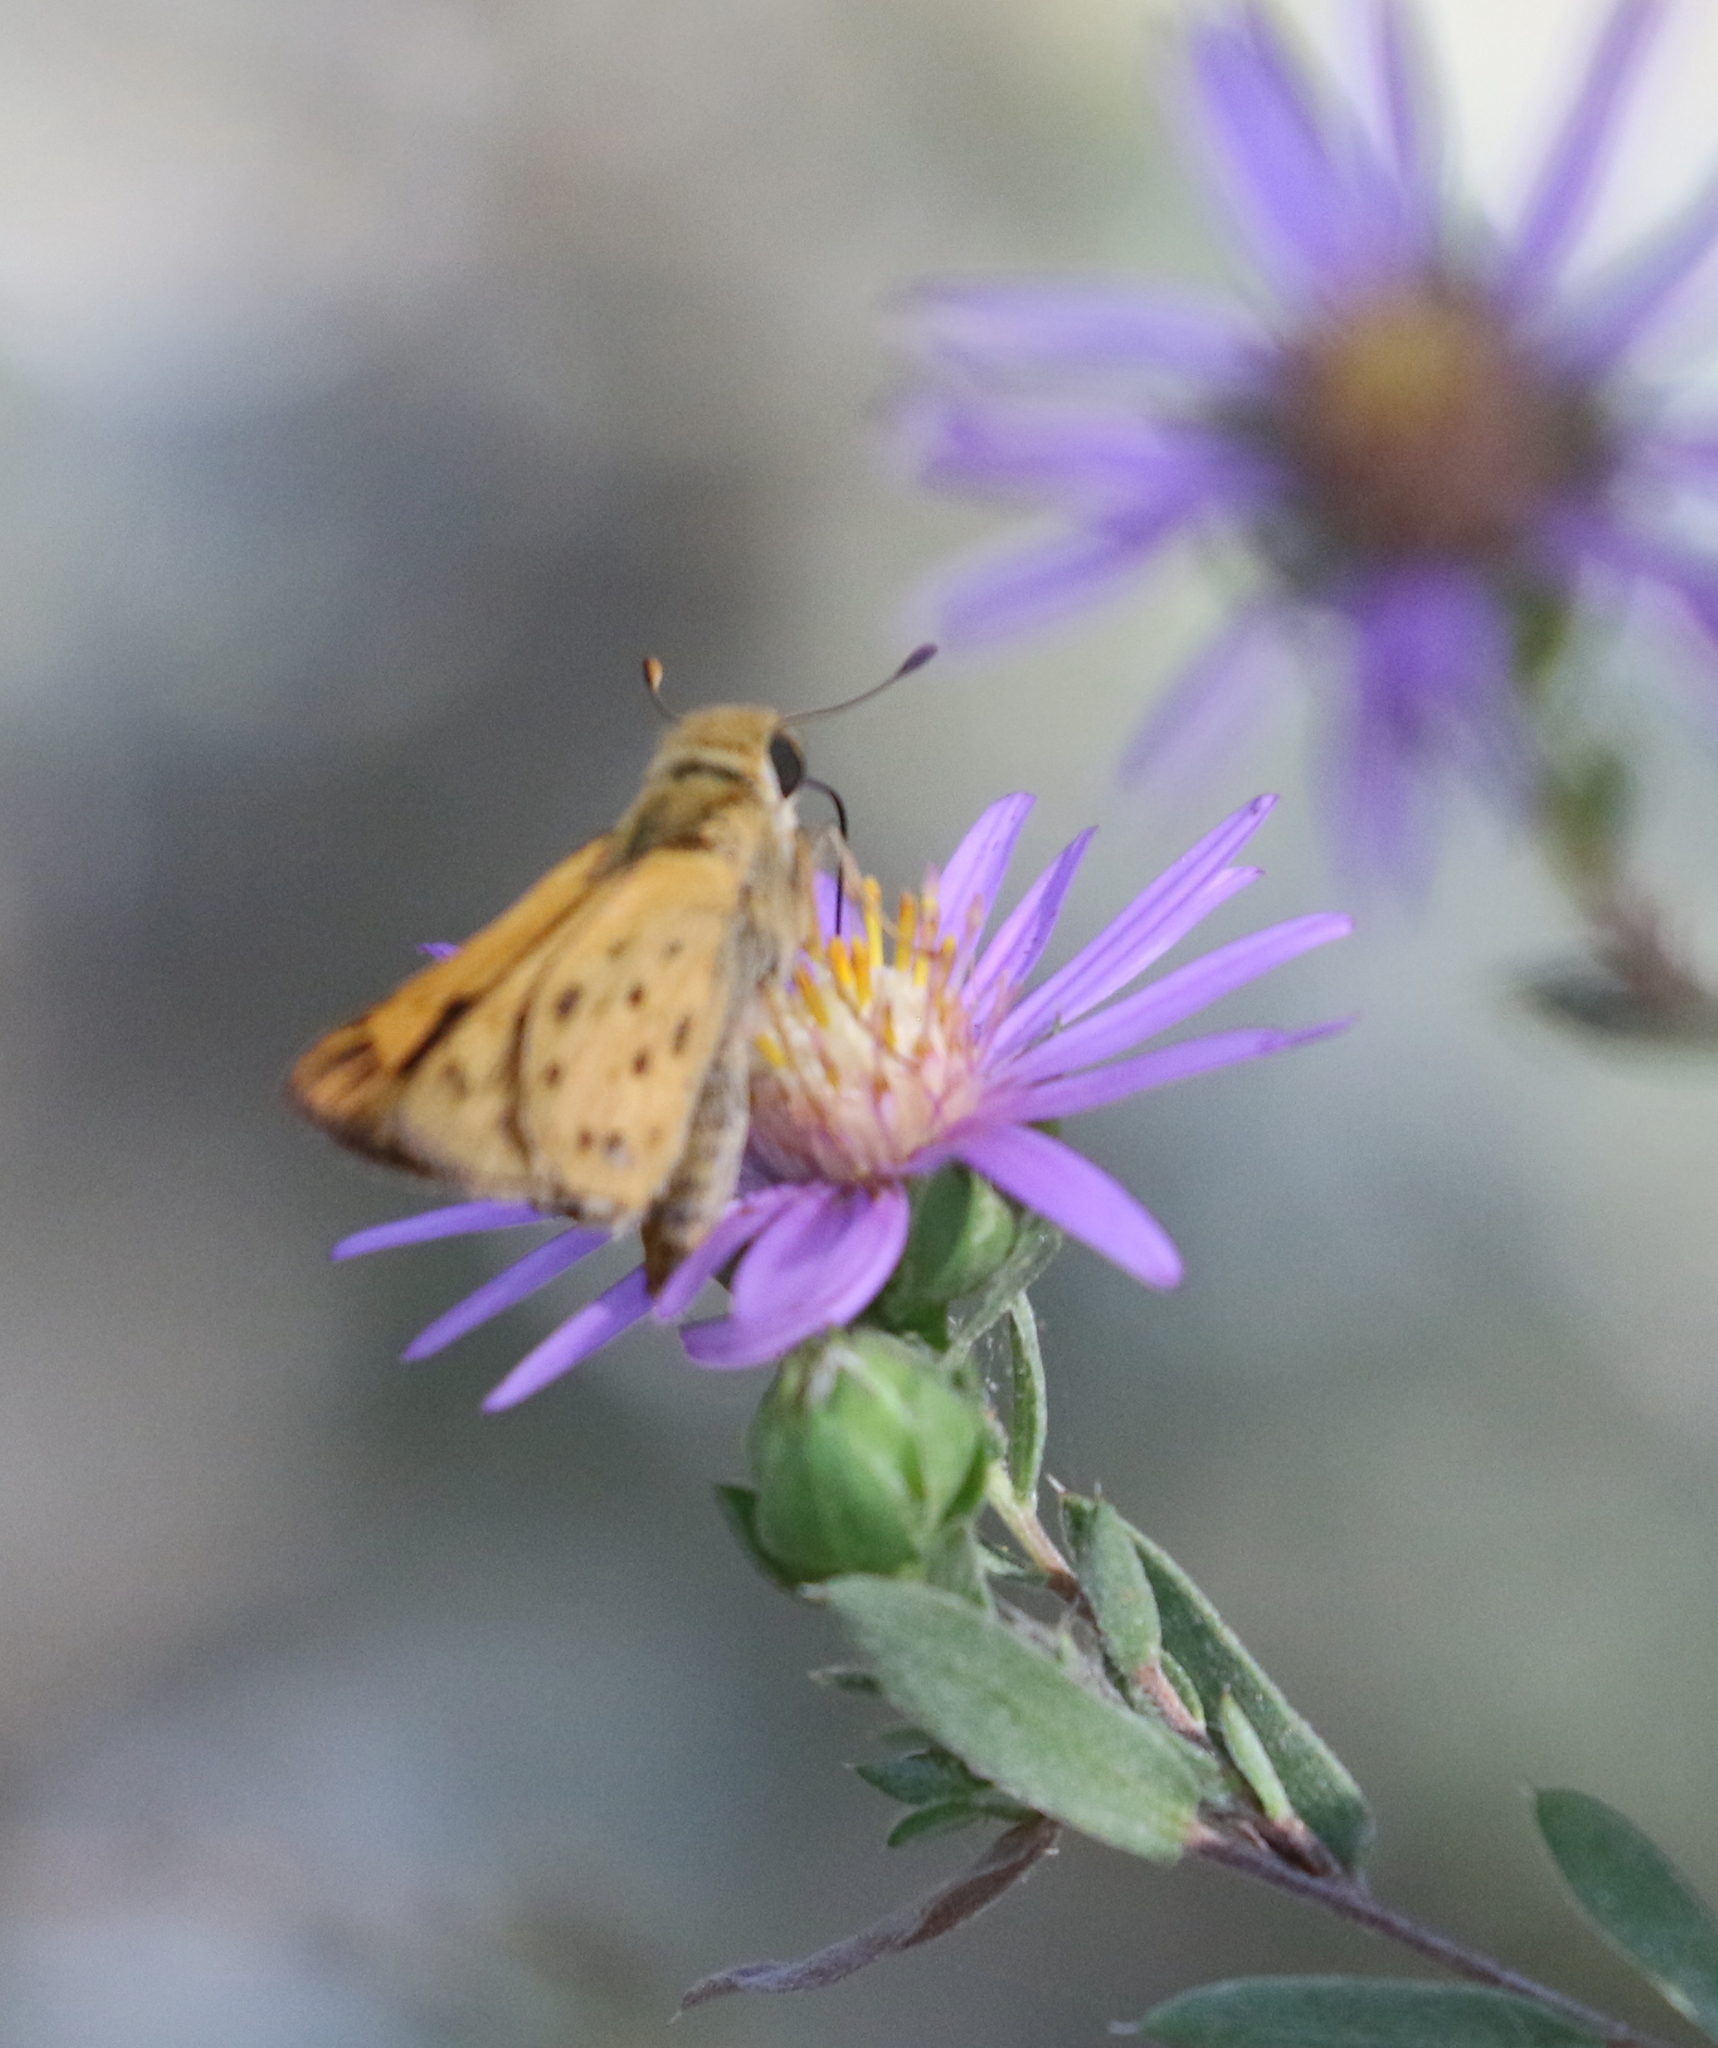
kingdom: Animalia
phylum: Arthropoda
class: Insecta
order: Lepidoptera
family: Hesperiidae
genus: Hylephila
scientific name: Hylephila phyleus
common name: Fiery skipper
